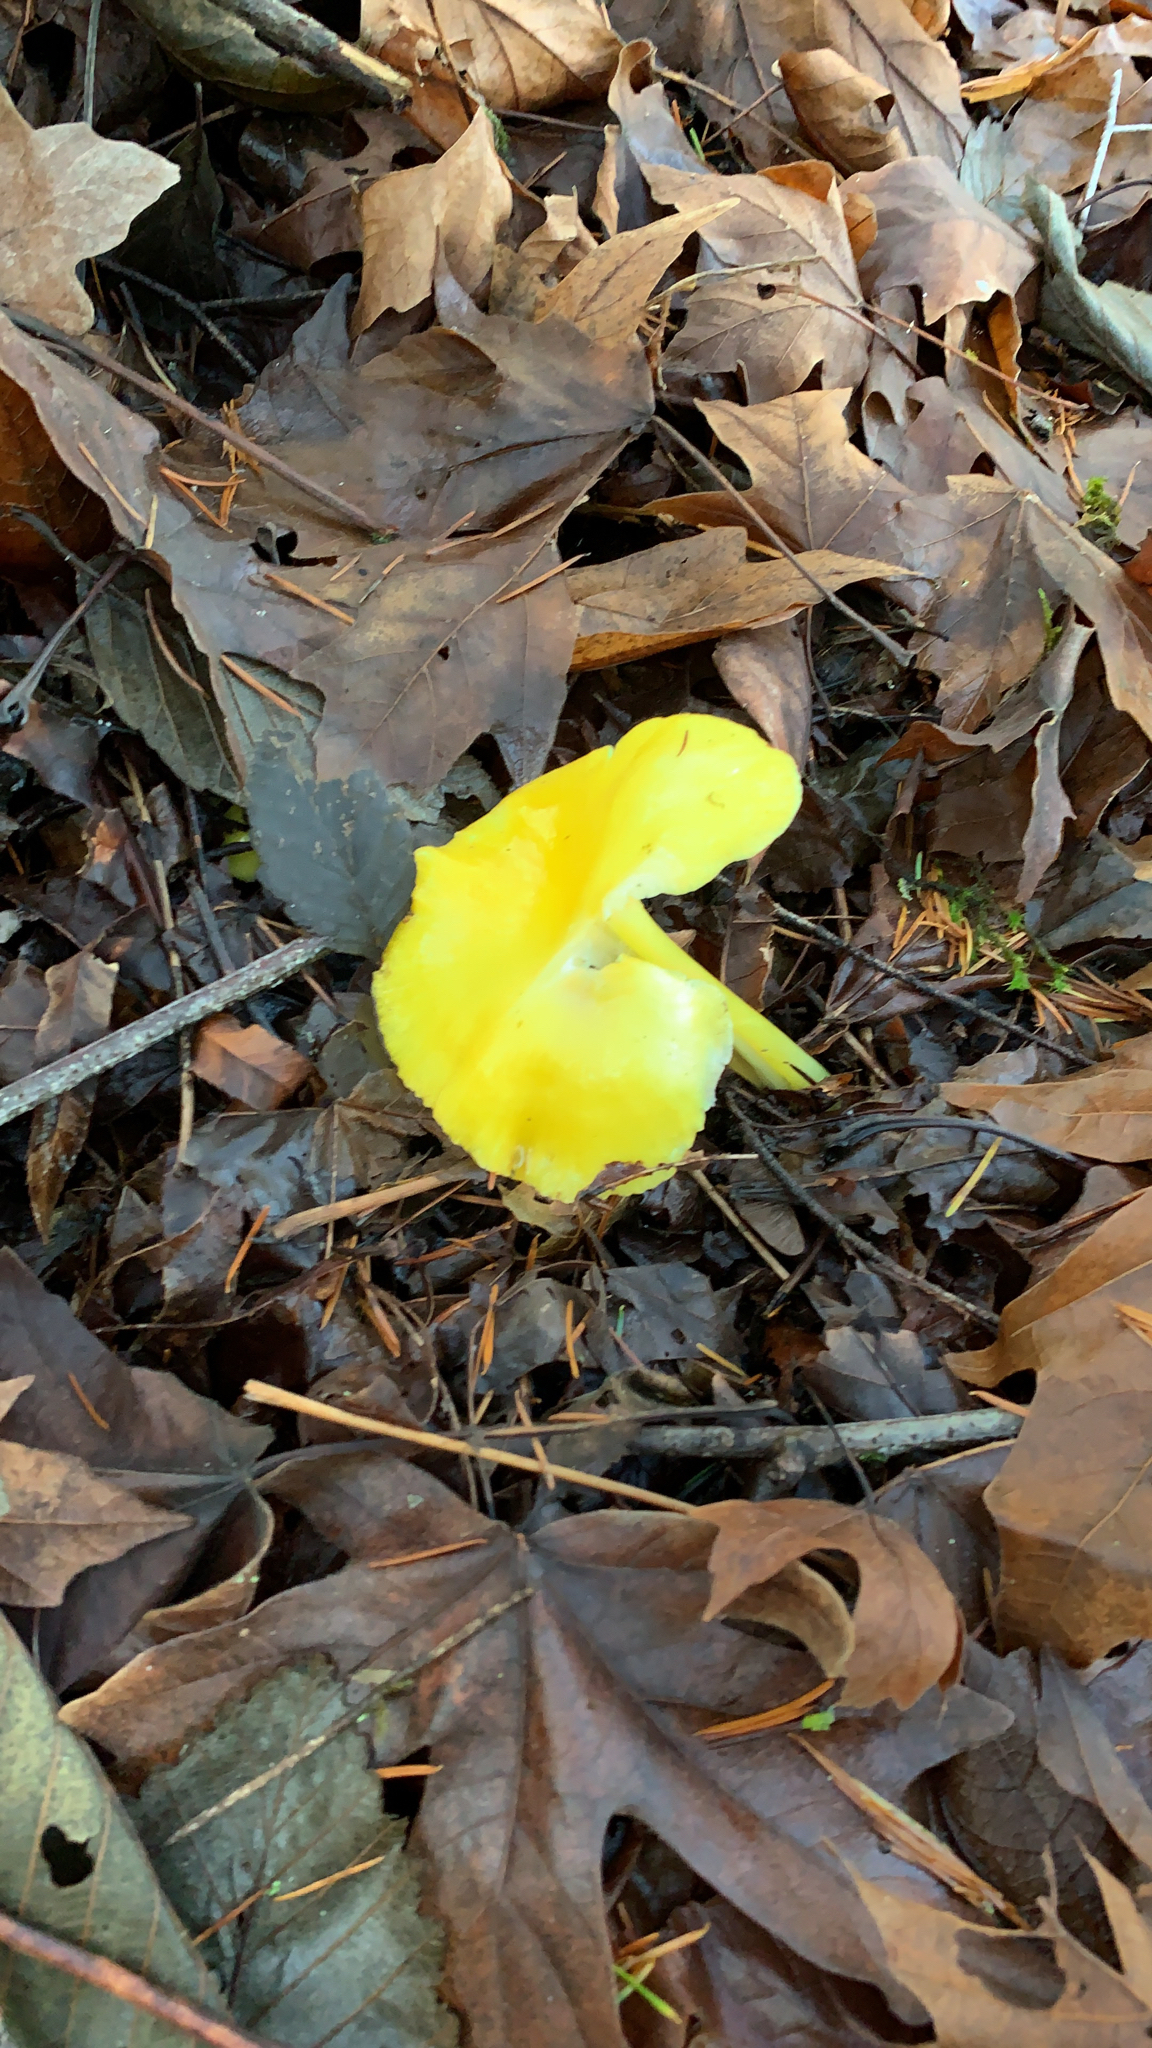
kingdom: Fungi
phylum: Basidiomycota
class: Agaricomycetes
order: Agaricales
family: Hygrophoraceae
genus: Hygrocybe
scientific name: Hygrocybe flavescens
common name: Golden waxy cap
